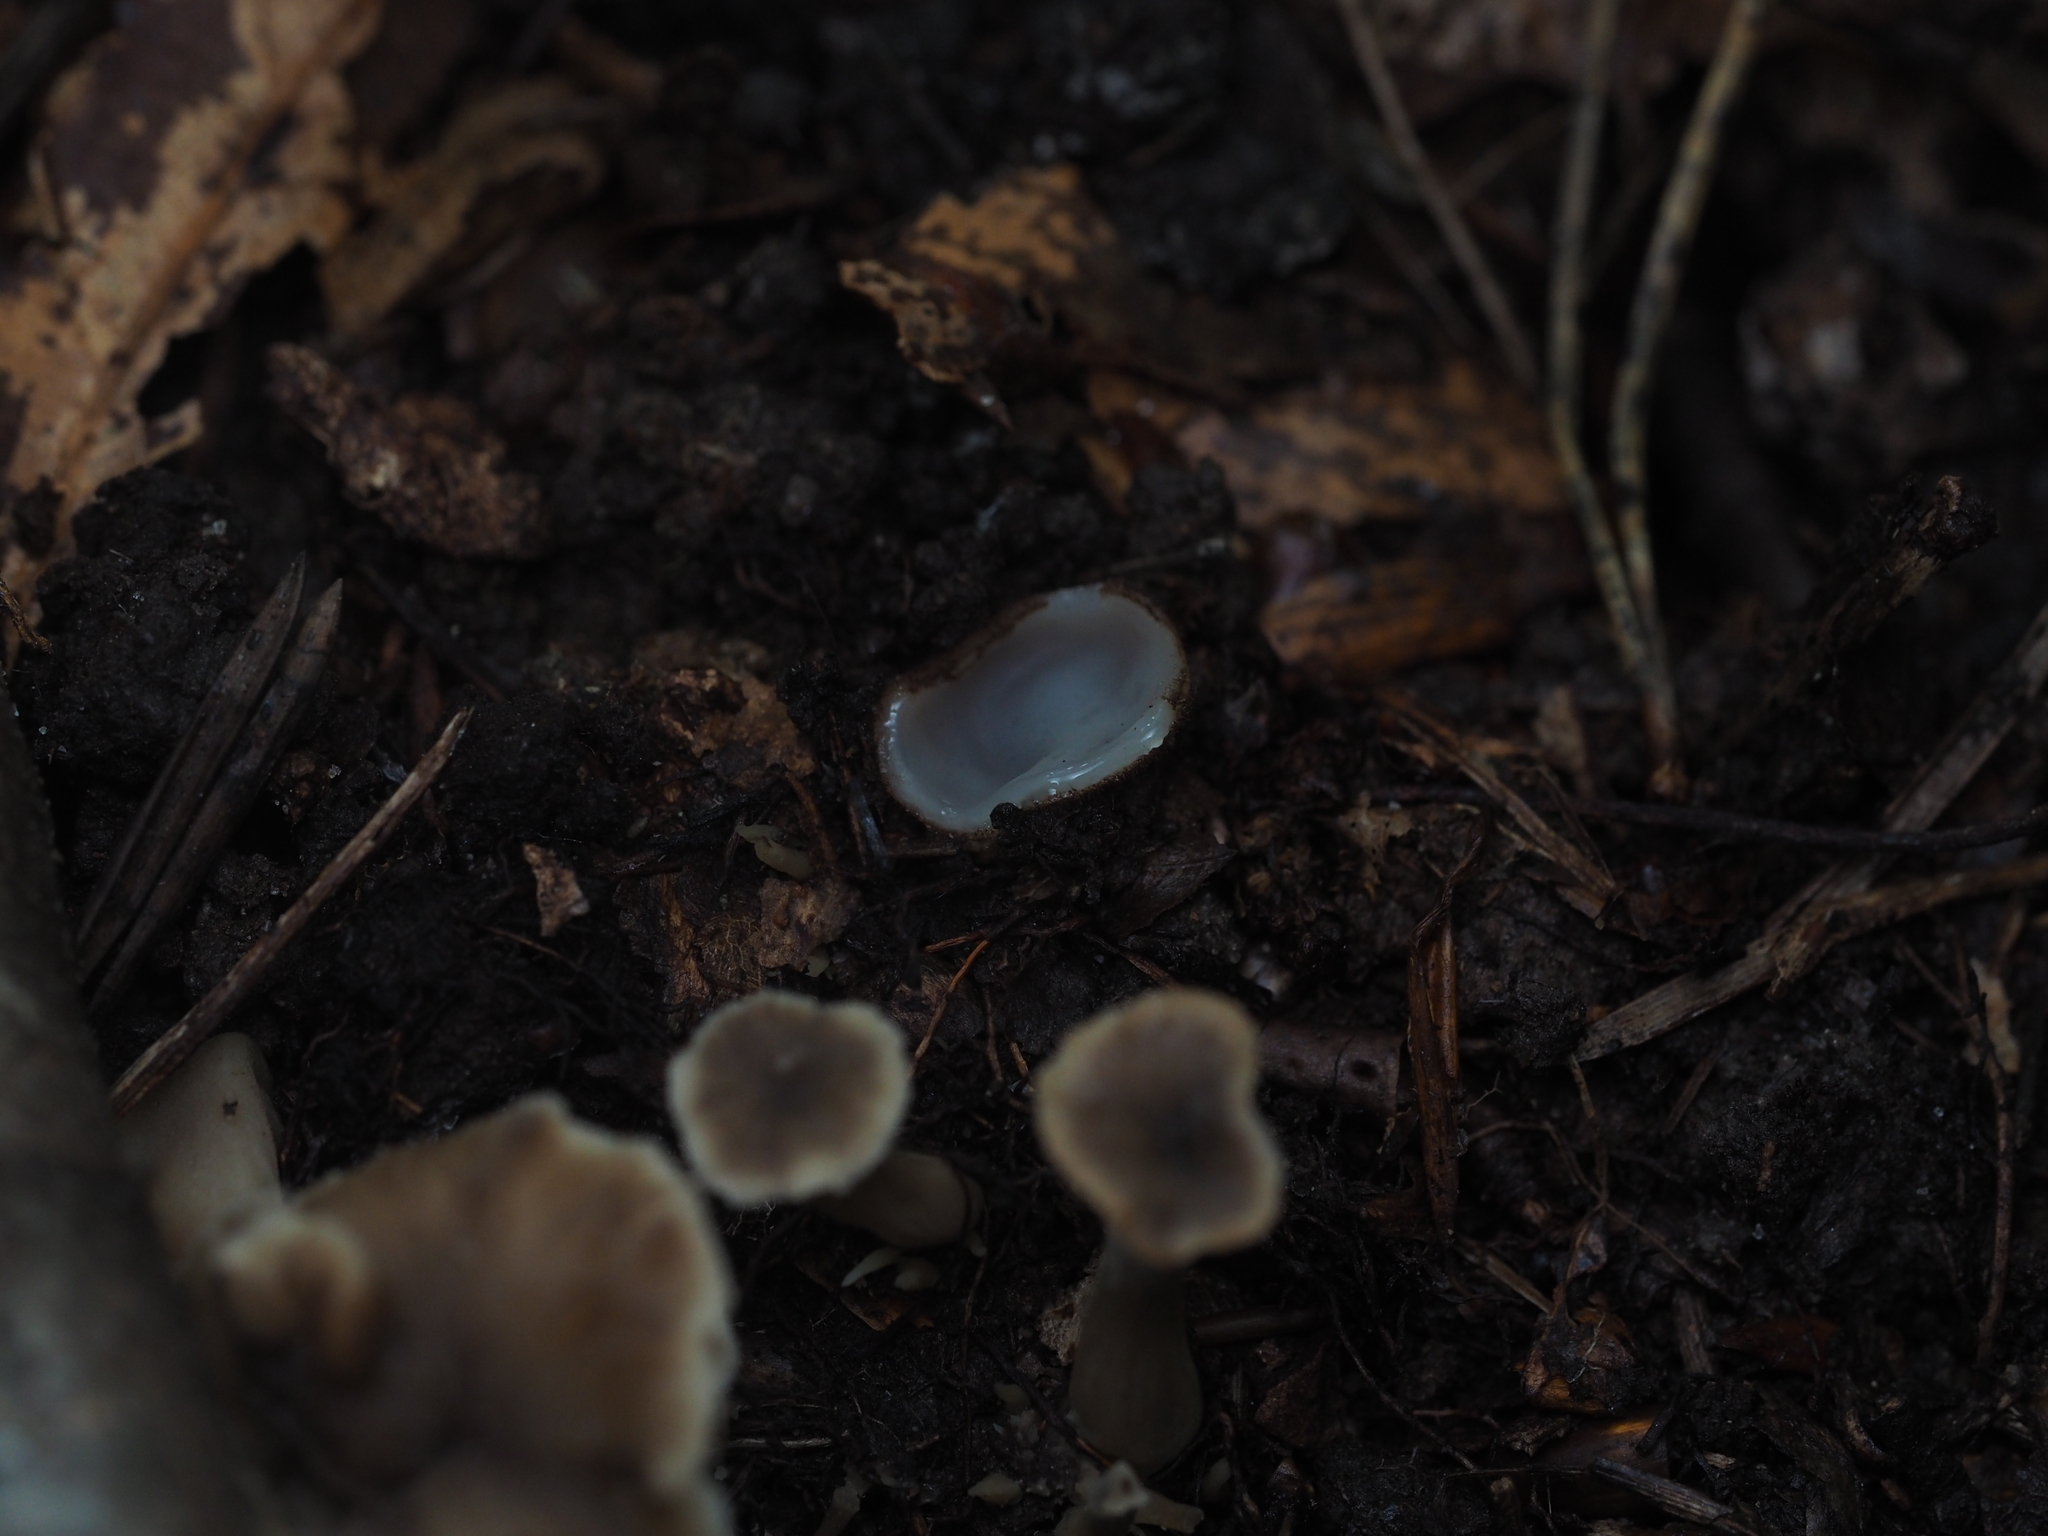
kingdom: Fungi
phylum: Ascomycota
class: Pezizomycetes
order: Pezizales
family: Pyronemataceae
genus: Humaria
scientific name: Humaria hemisphaerica
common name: Glazed cup
